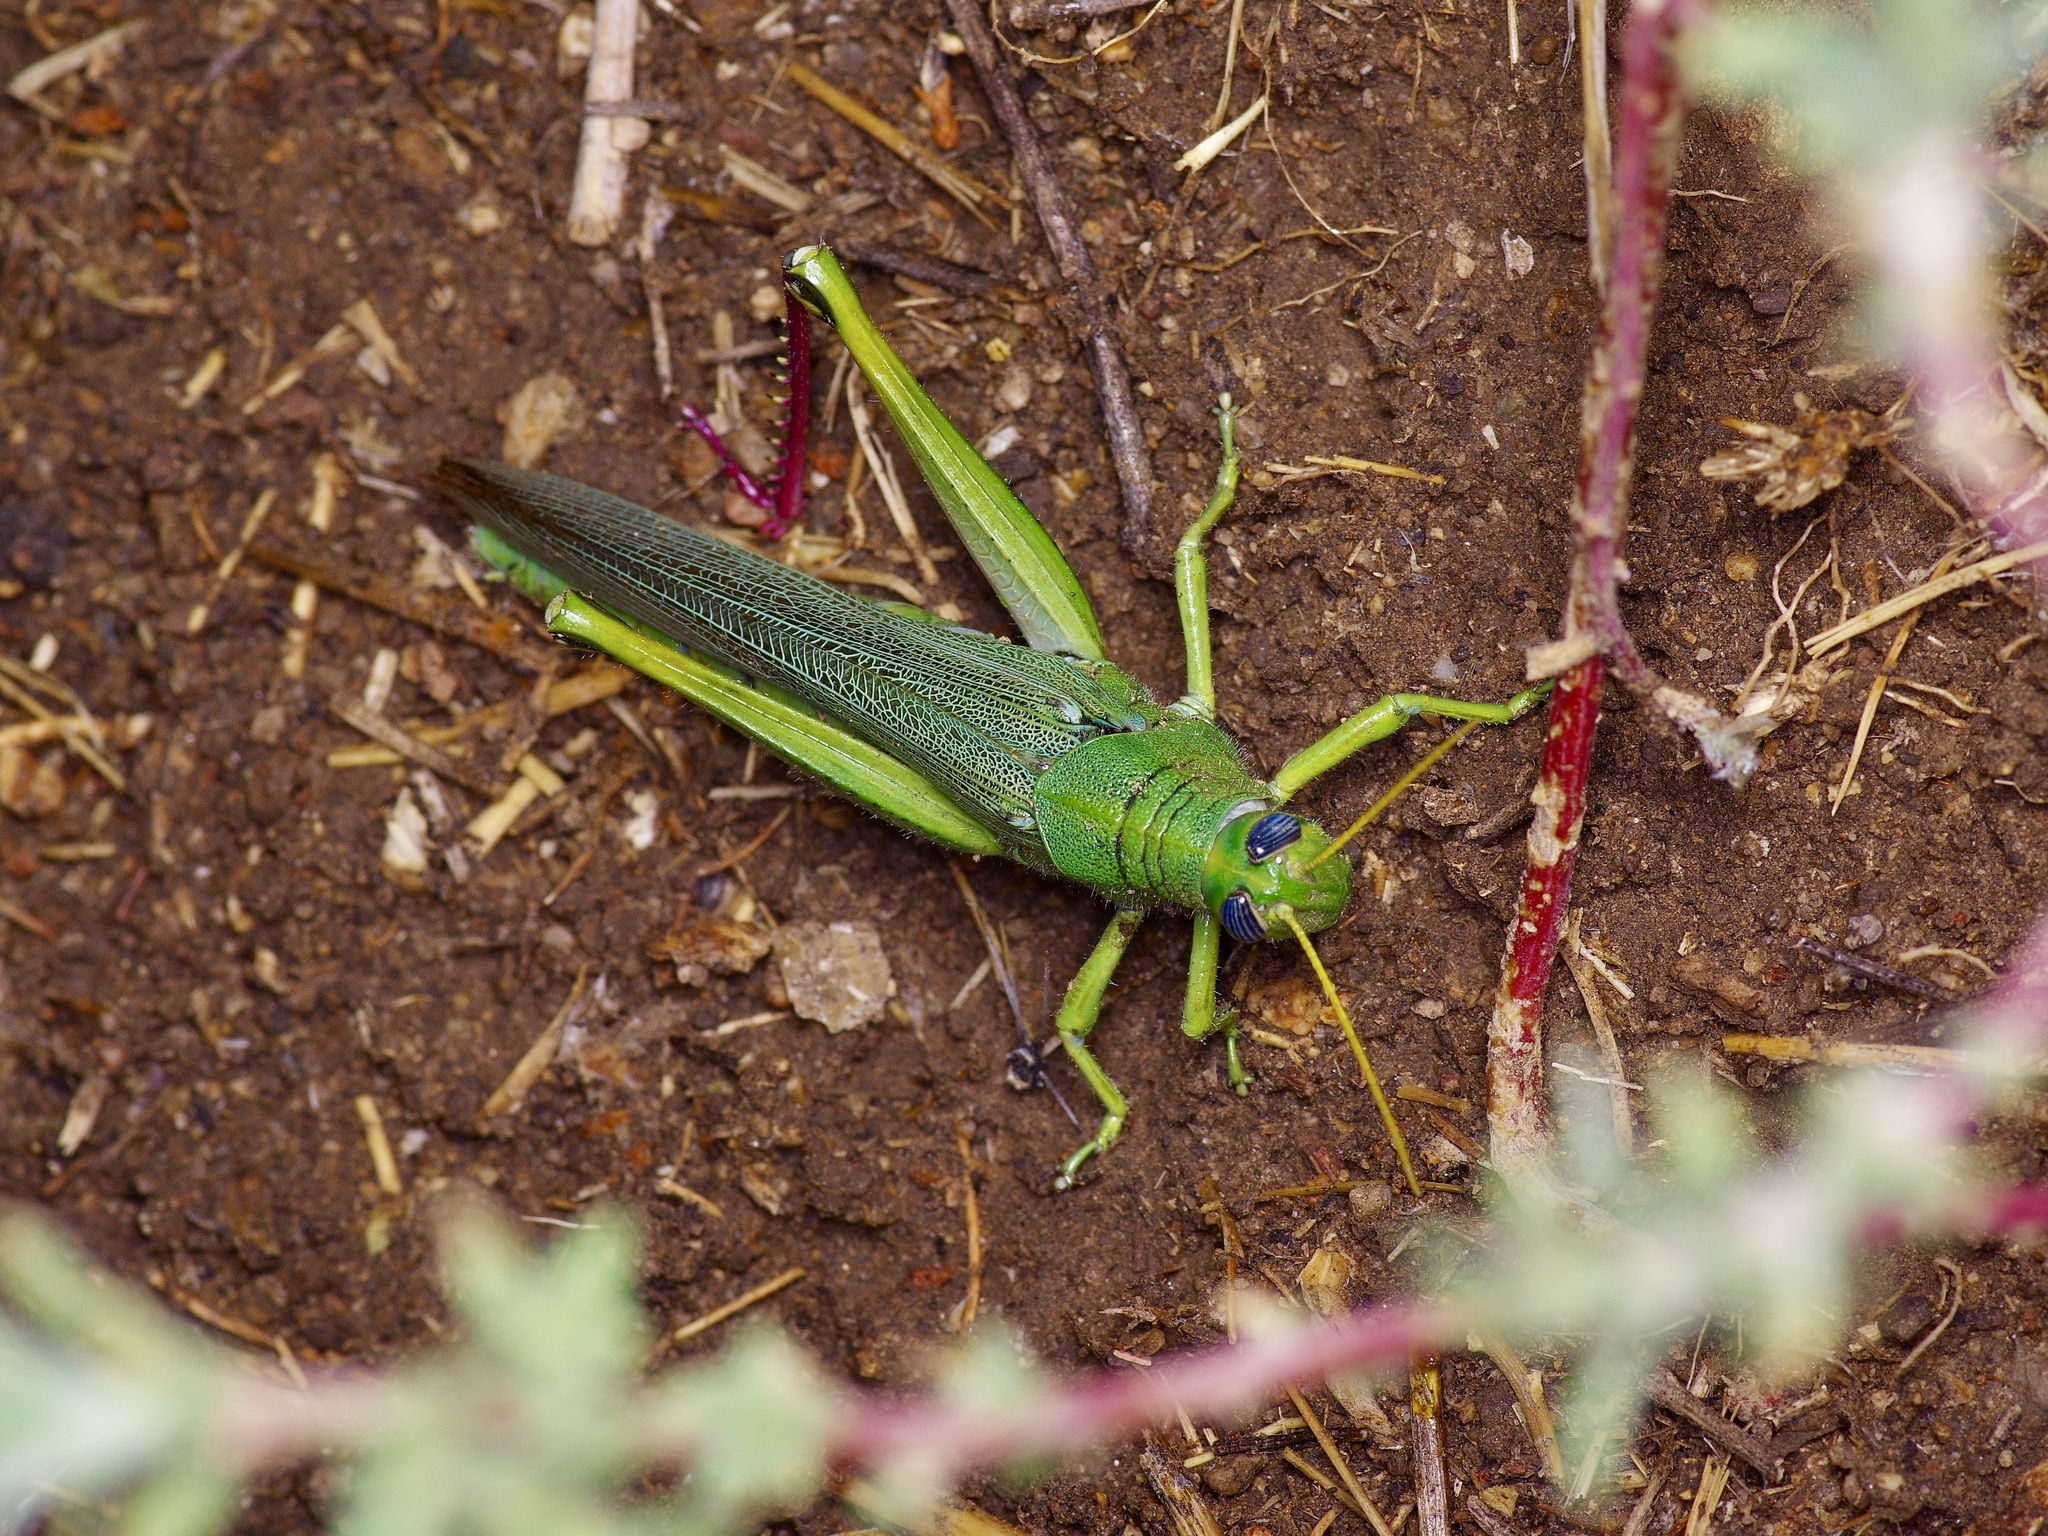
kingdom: Animalia
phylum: Arthropoda
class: Insecta
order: Orthoptera
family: Acrididae
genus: Schistocerca
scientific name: Schistocerca shoshone
